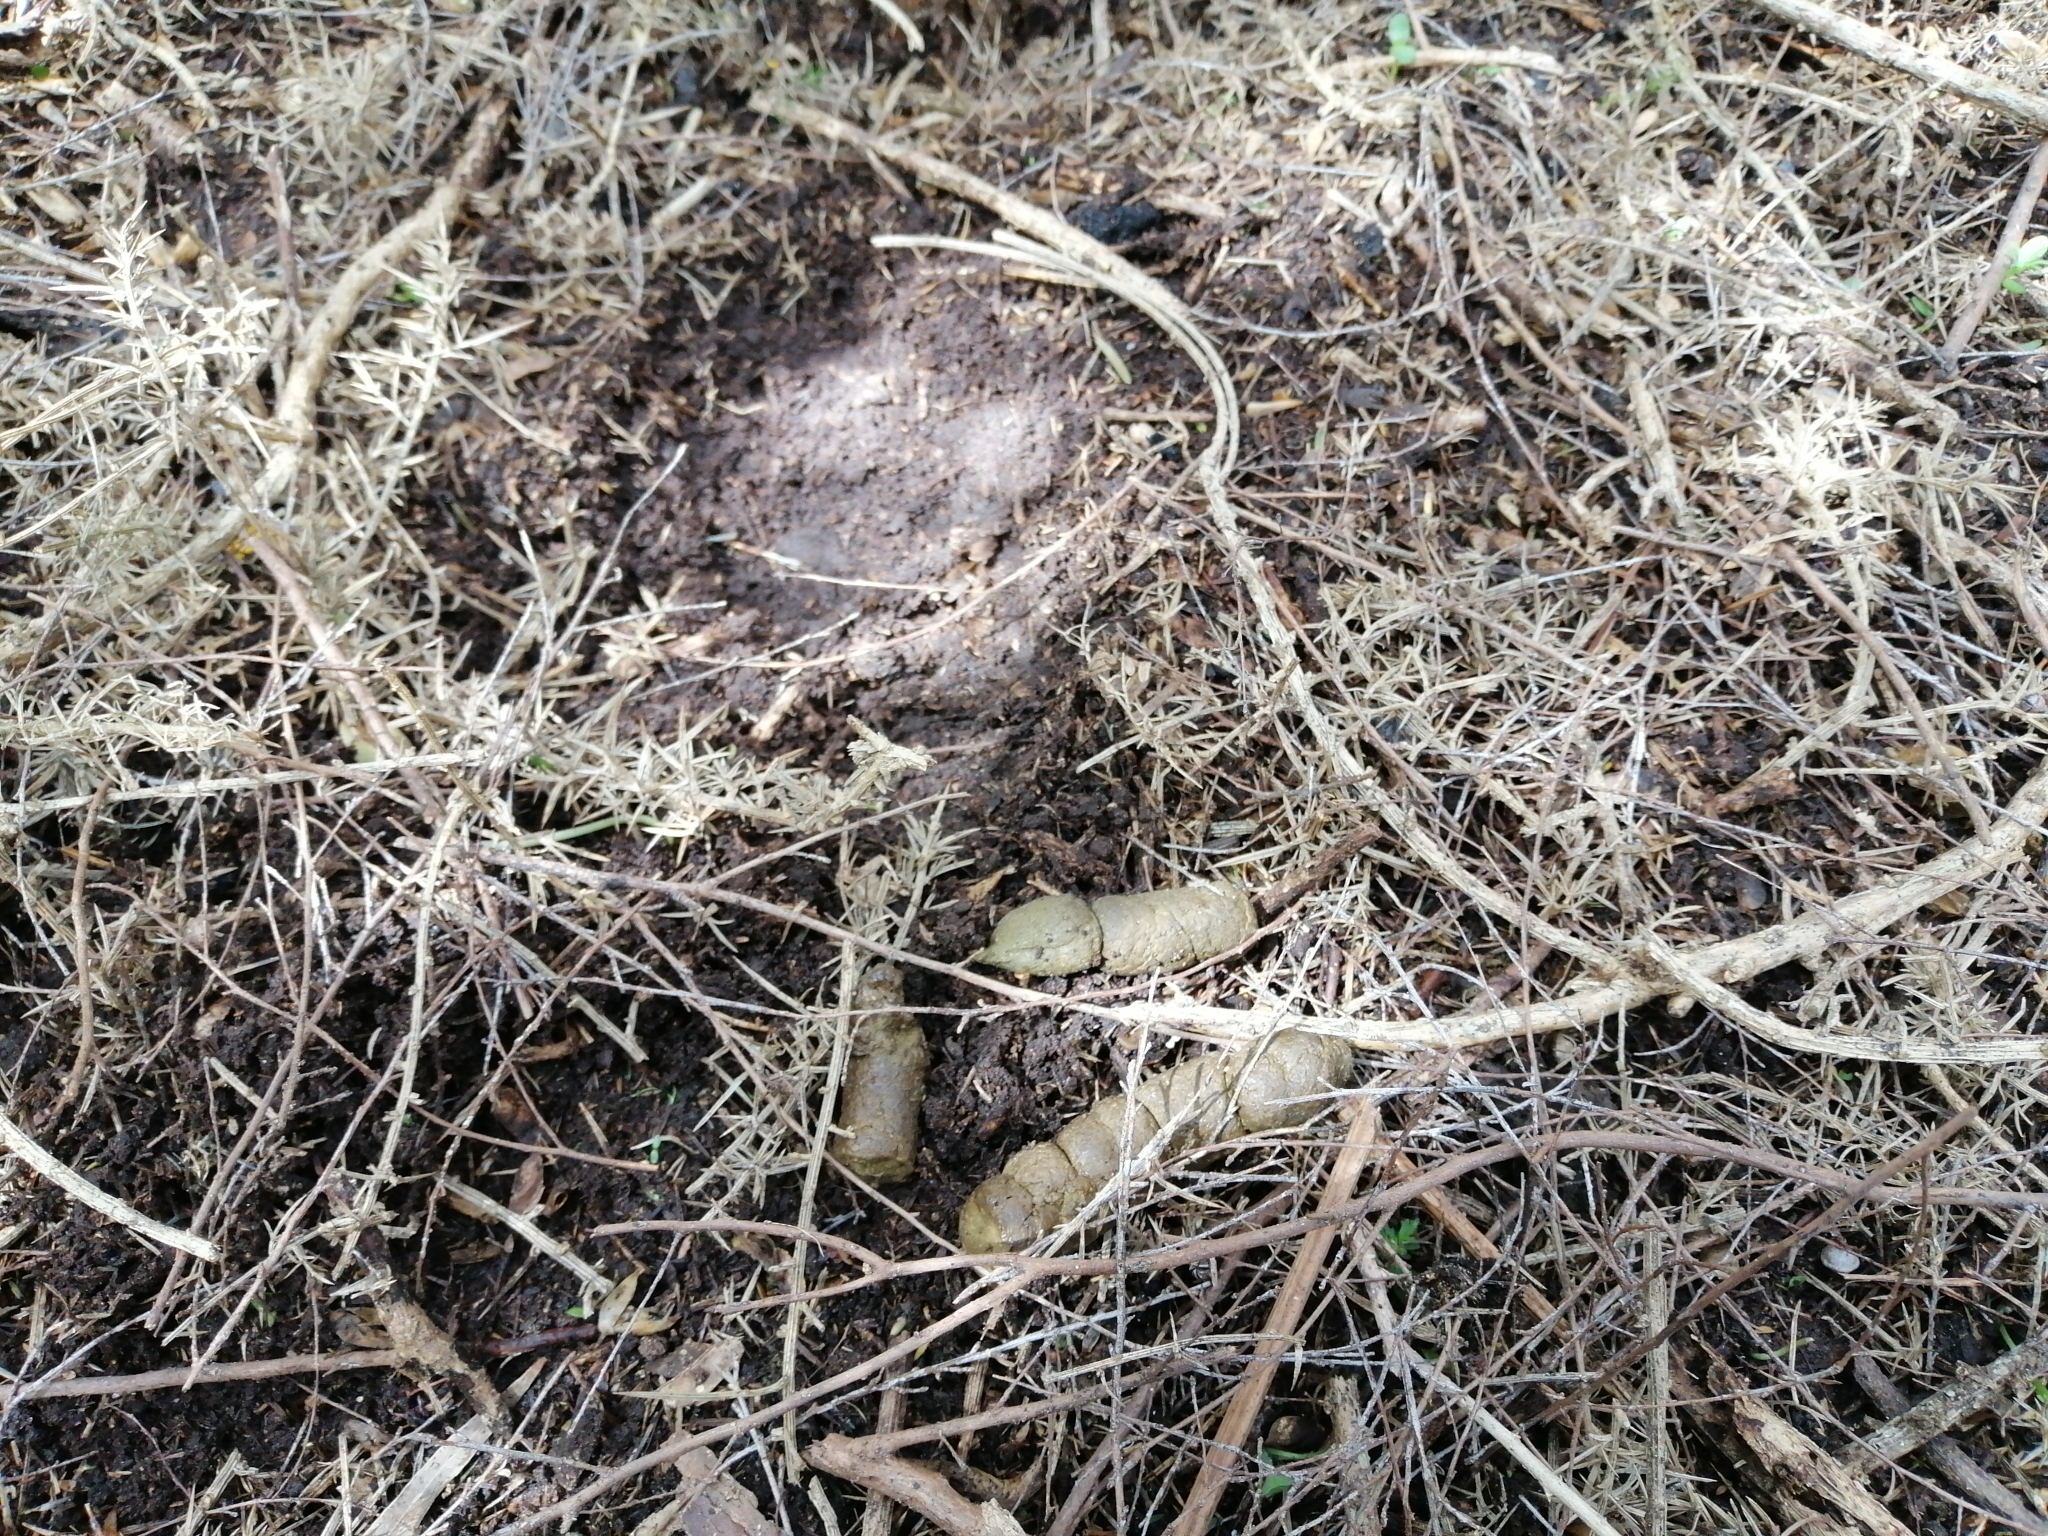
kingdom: Animalia
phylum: Chordata
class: Mammalia
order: Carnivora
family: Felidae
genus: Felis
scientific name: Felis catus
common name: Domestic cat
